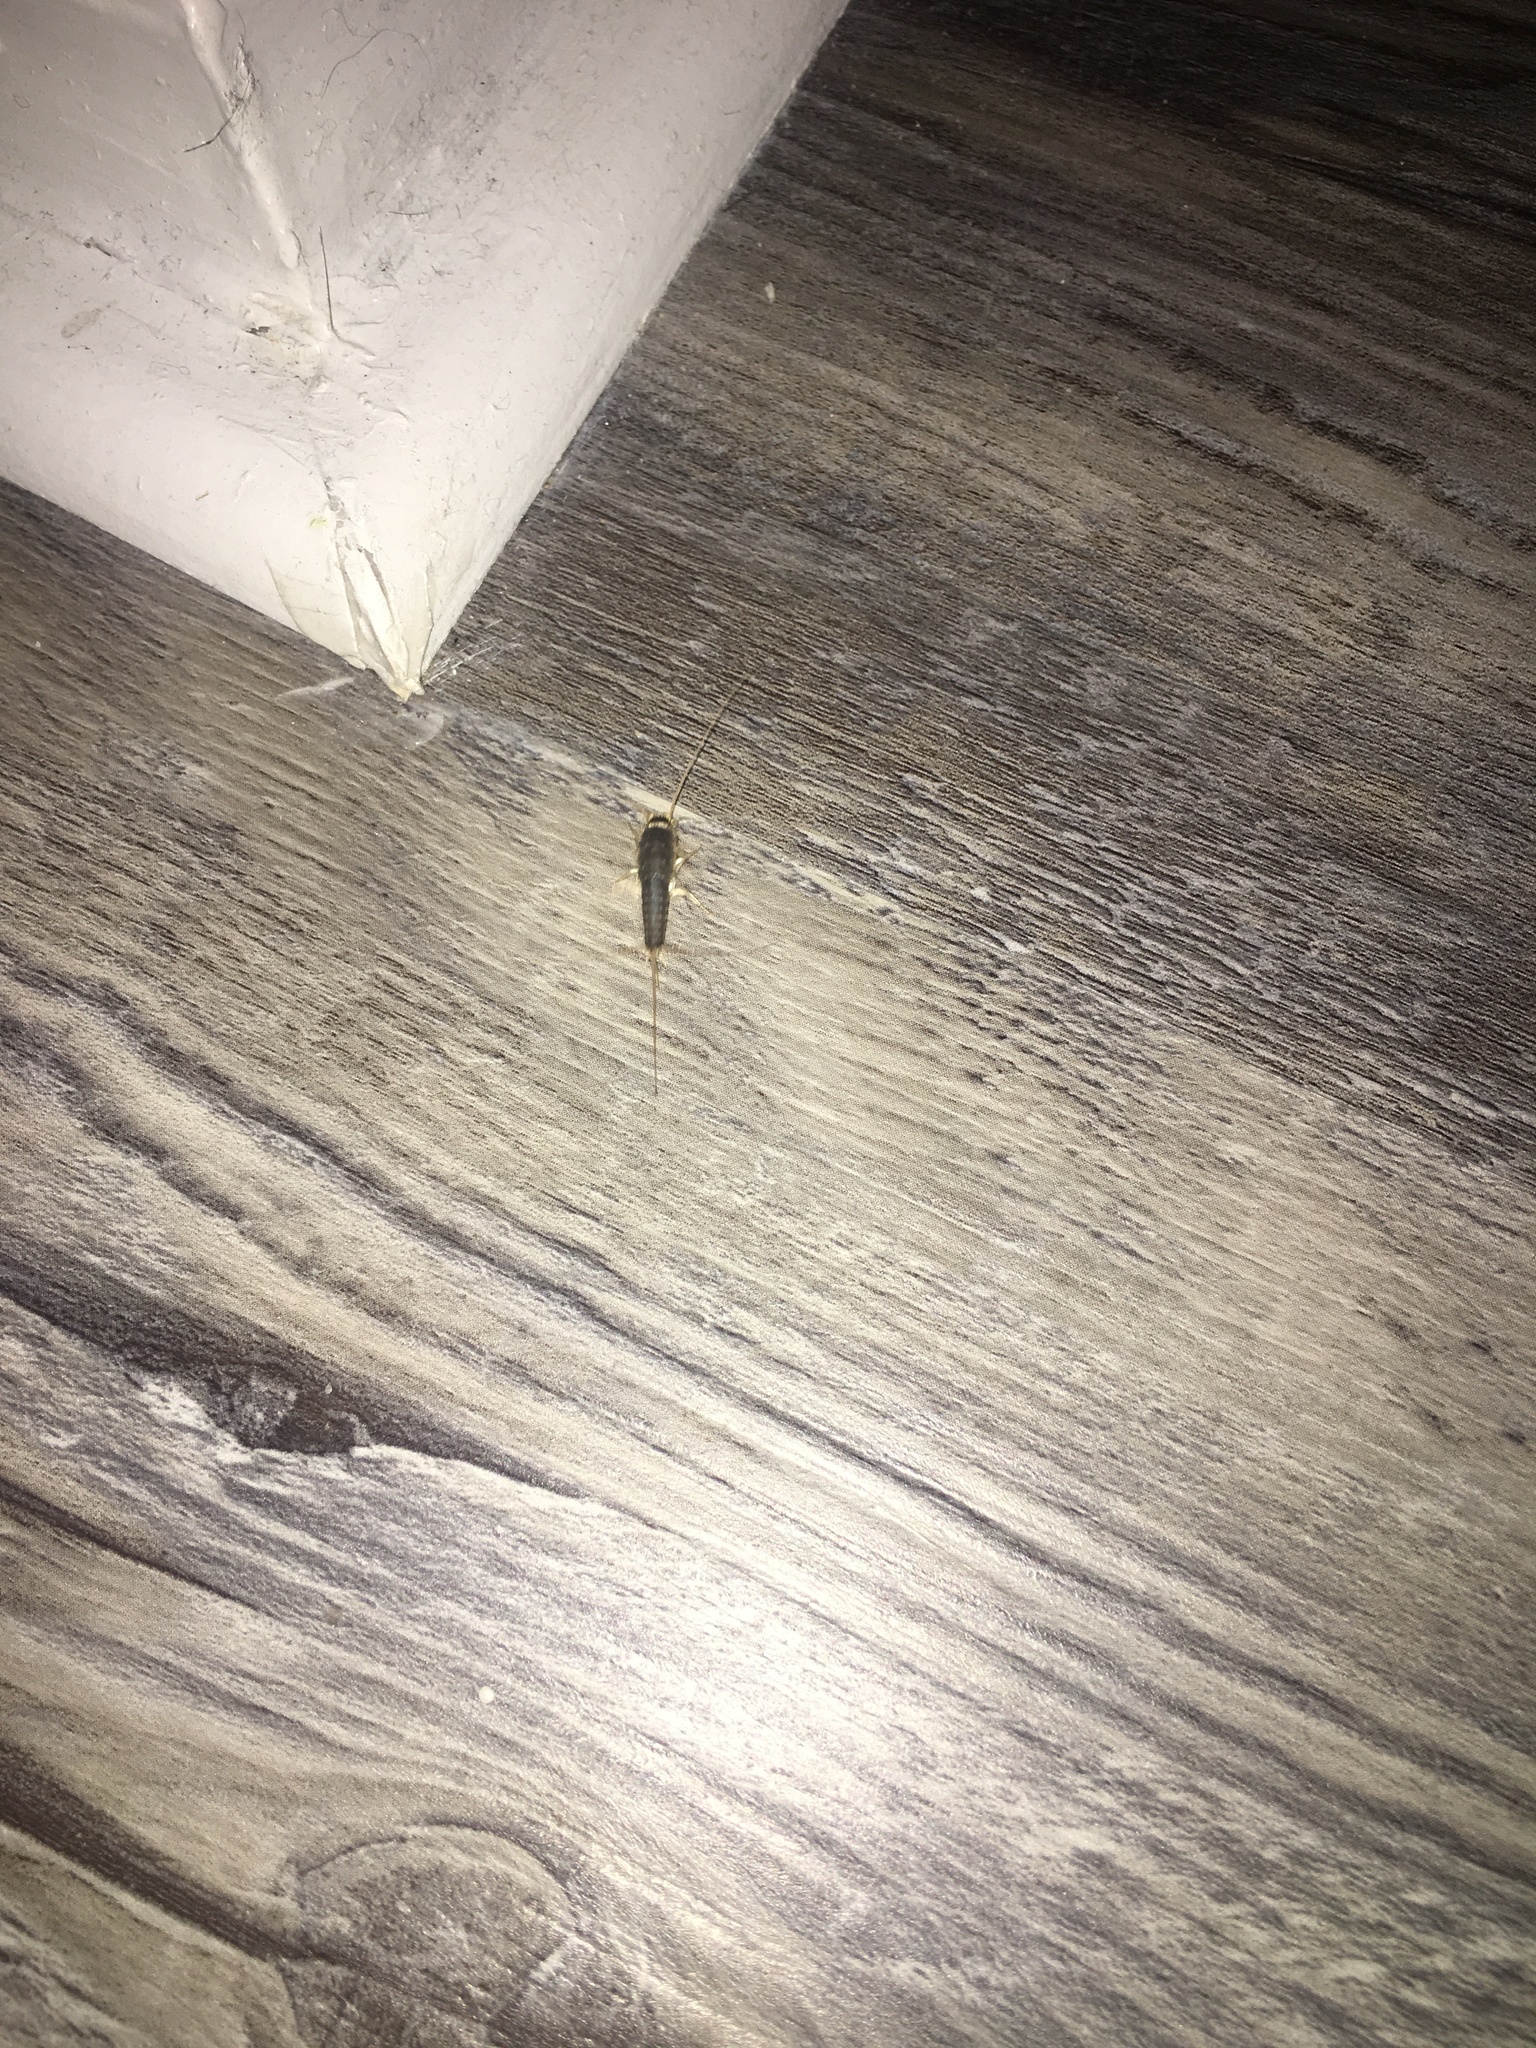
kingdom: Animalia
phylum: Arthropoda
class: Insecta
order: Zygentoma
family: Lepismatidae
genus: Ctenolepisma
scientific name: Ctenolepisma longicaudatum
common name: Silverfish
